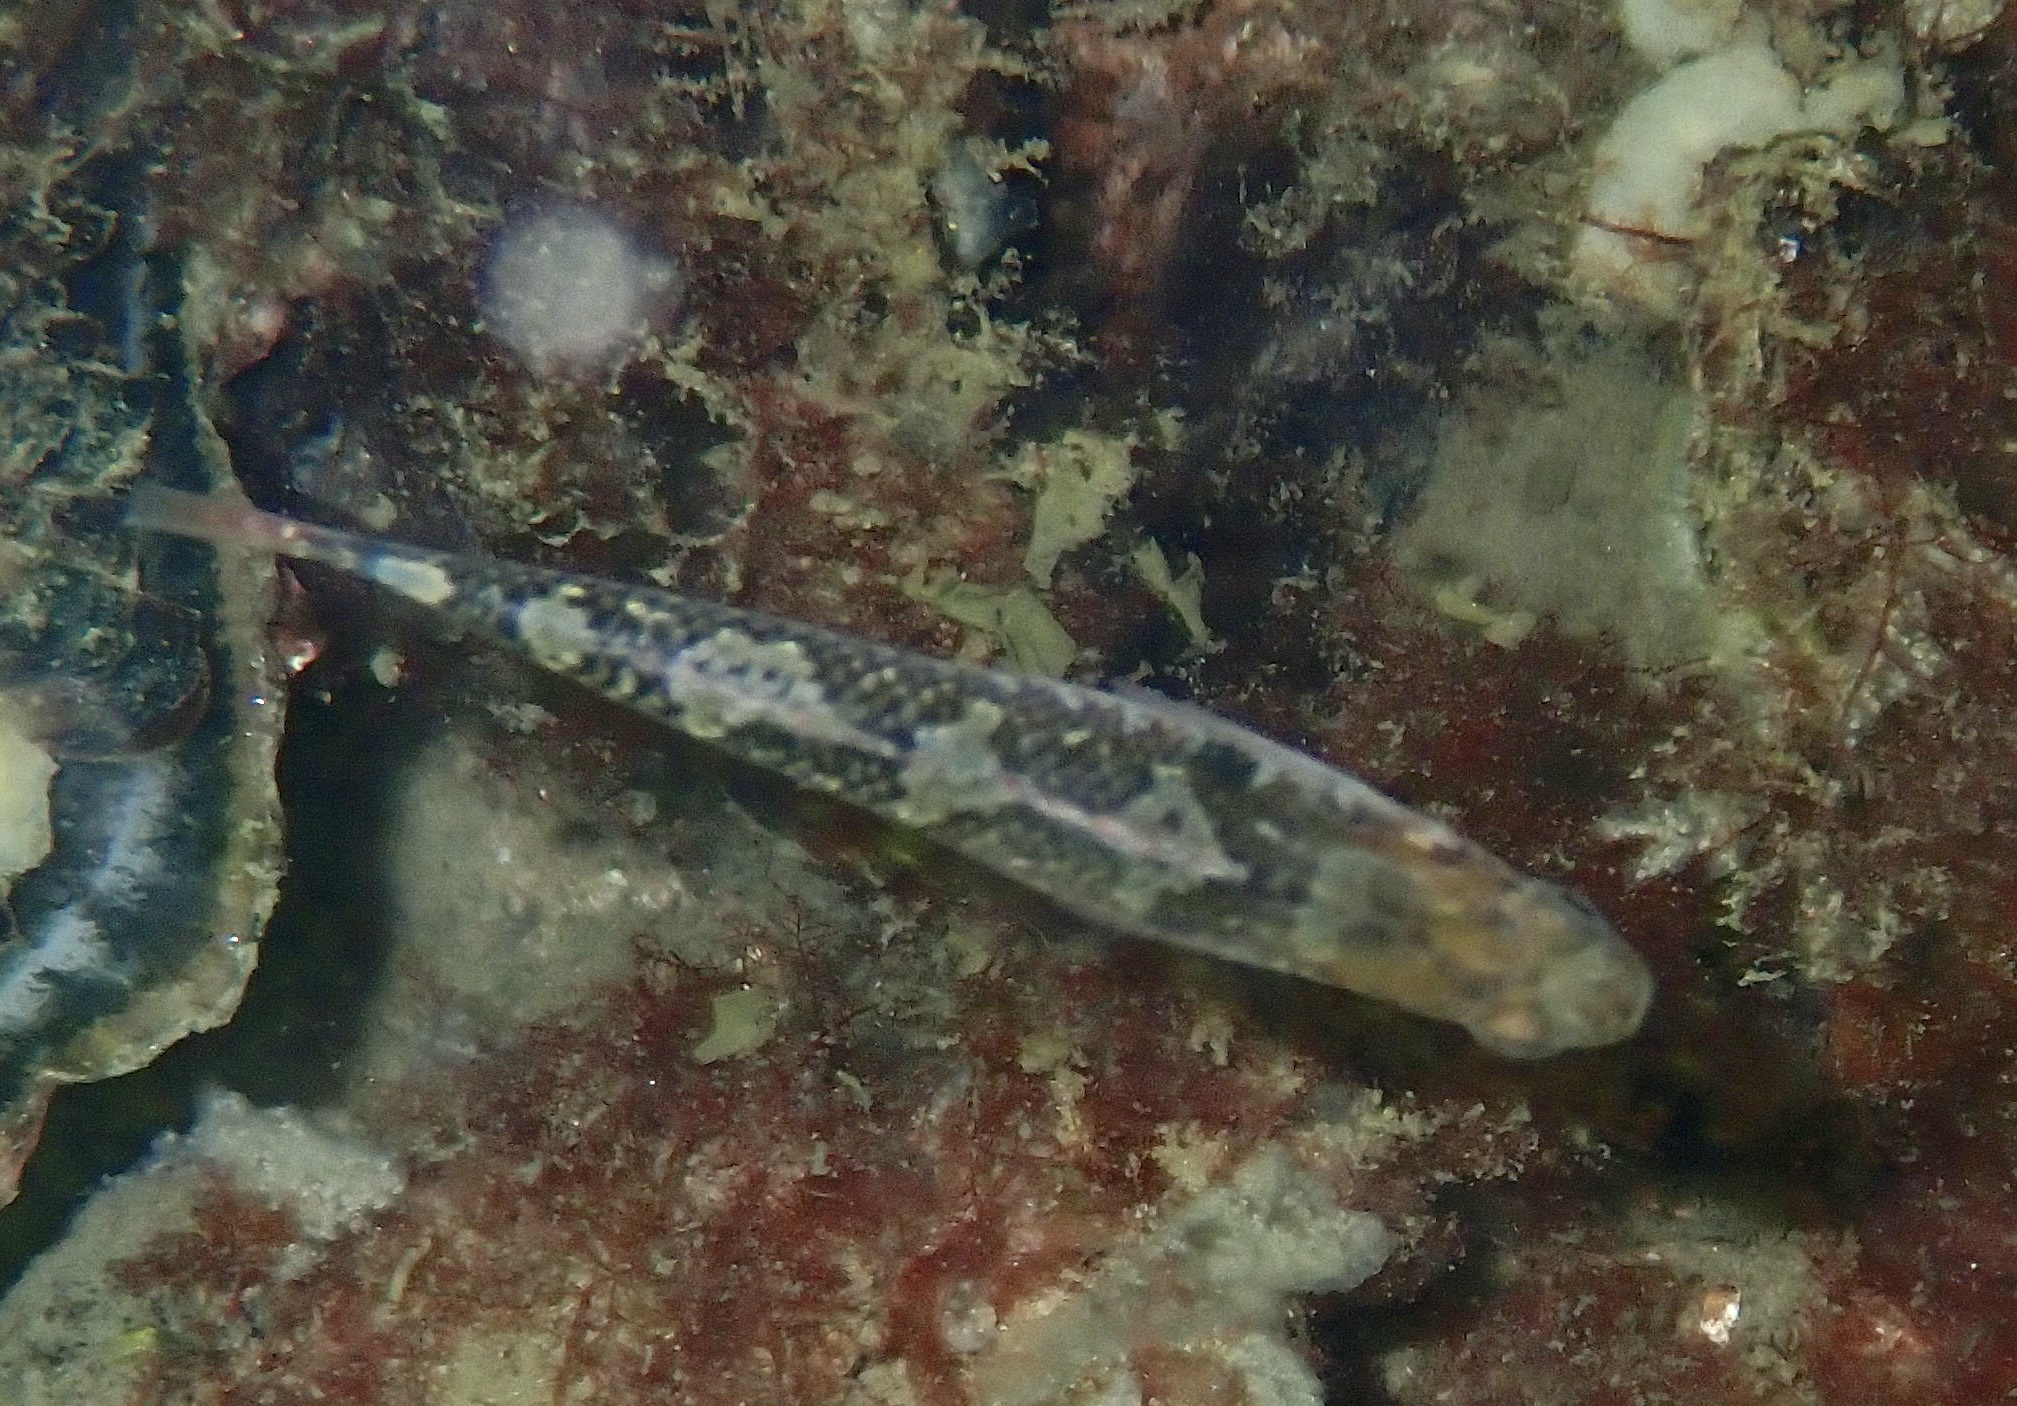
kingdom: Animalia
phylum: Chordata
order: Perciformes
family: Gobiidae
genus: Gobiusculus
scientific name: Gobiusculus flavescens
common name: Two-spotted goby
